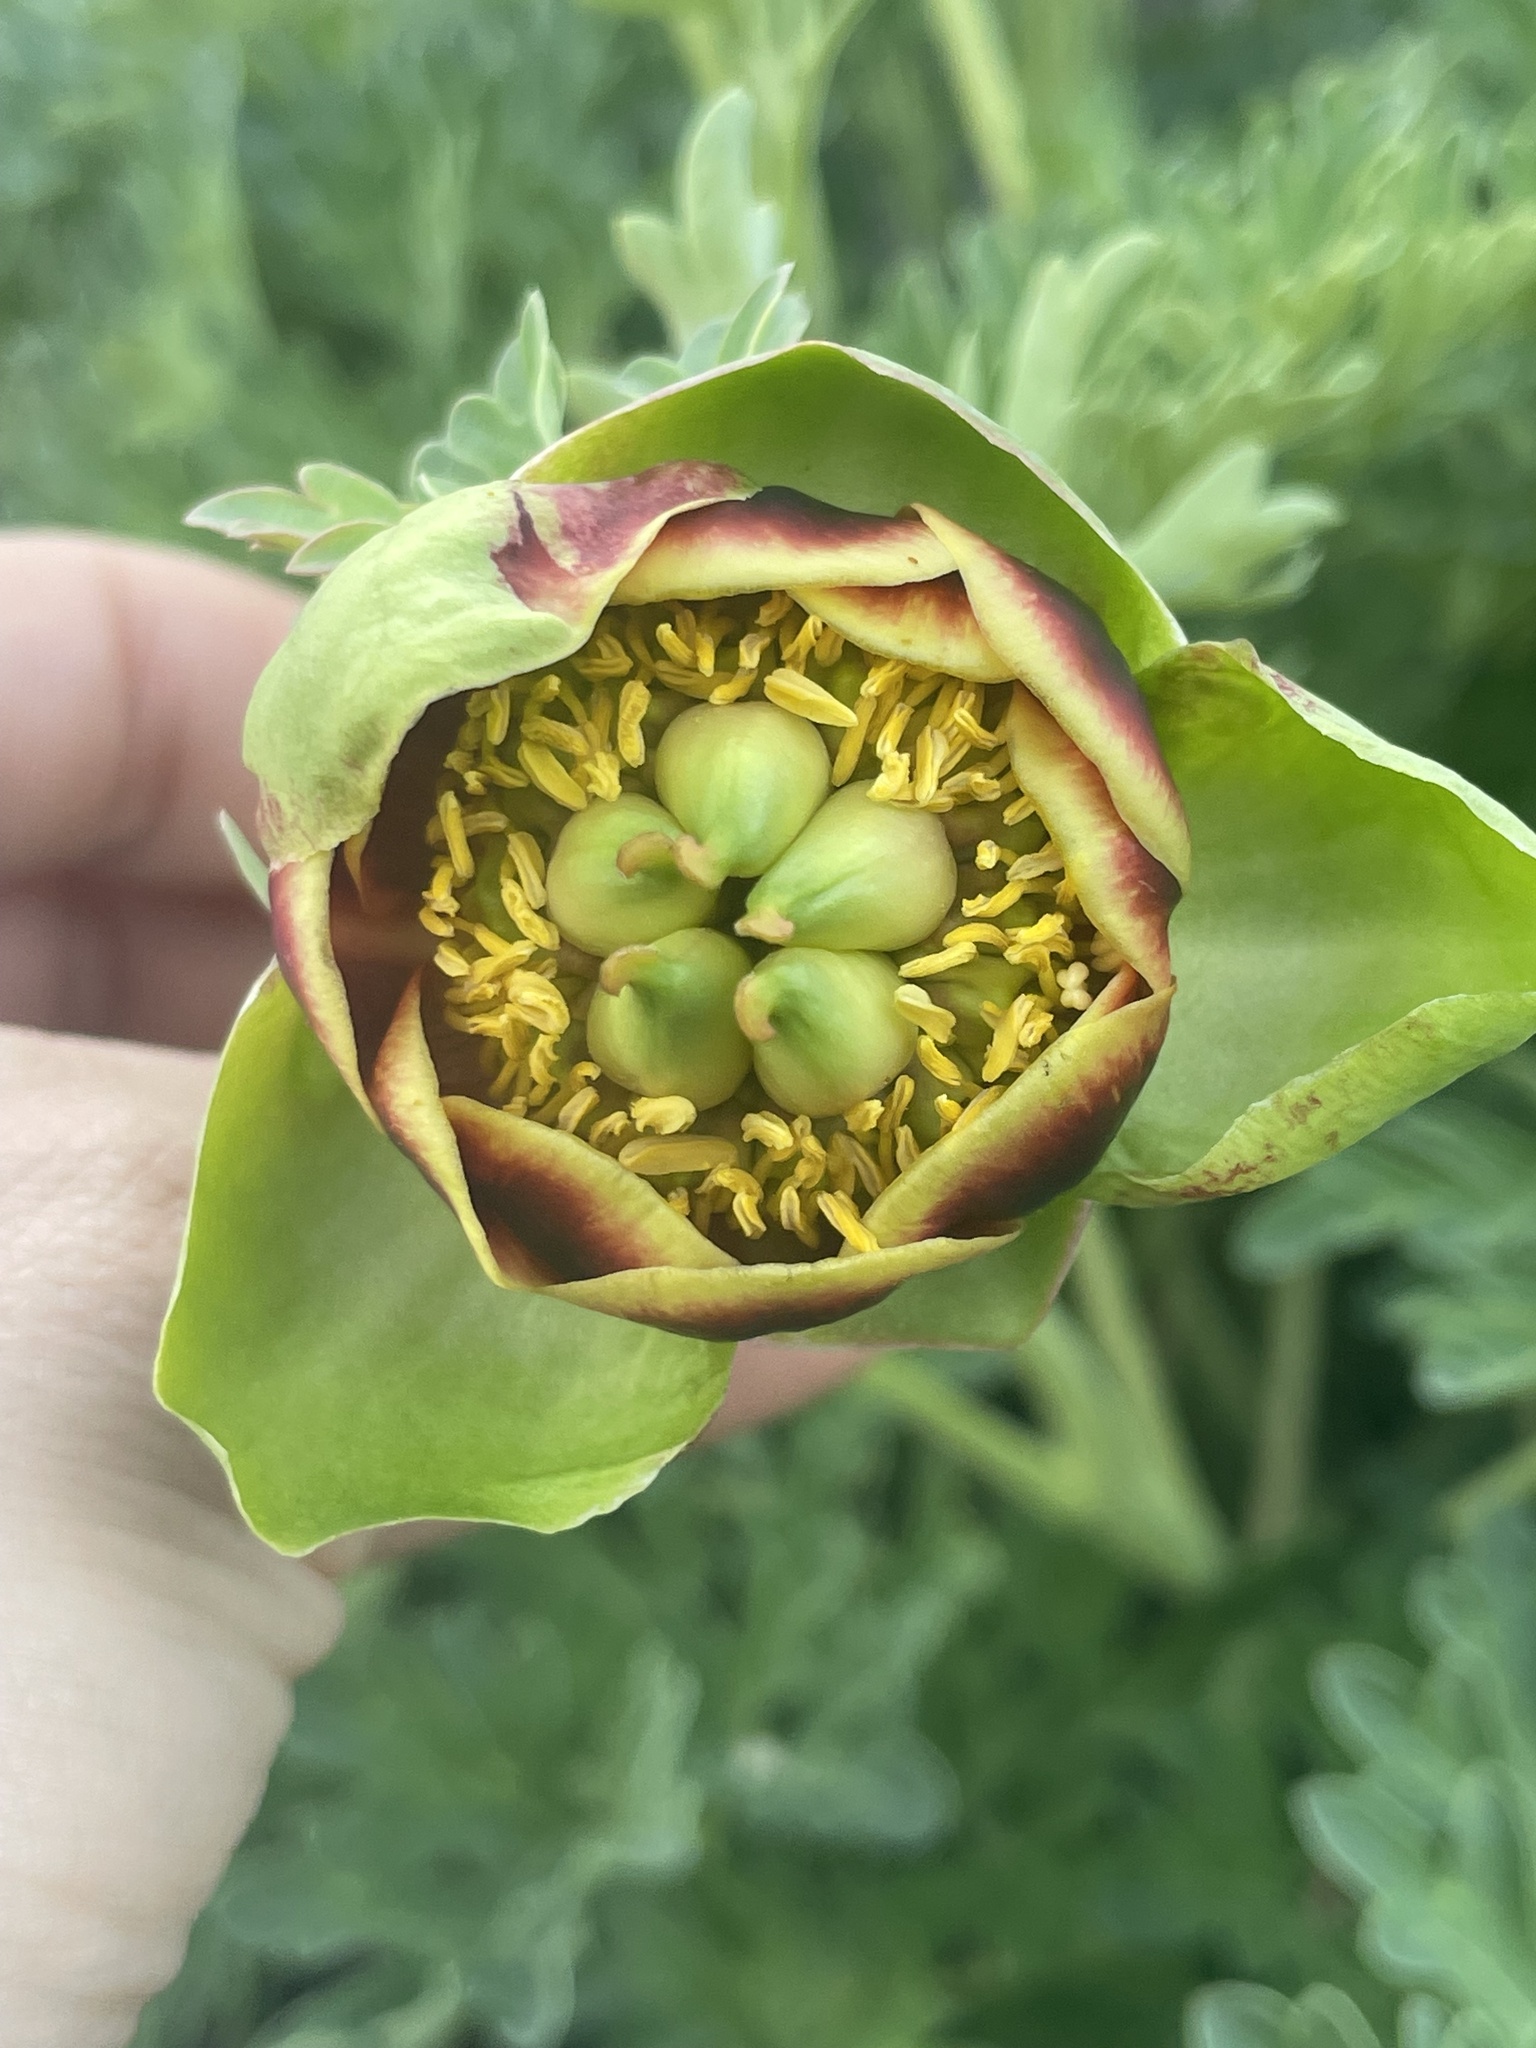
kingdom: Plantae
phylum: Tracheophyta
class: Magnoliopsida
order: Saxifragales
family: Paeoniaceae
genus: Paeonia
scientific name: Paeonia brownii
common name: Brown's peony
